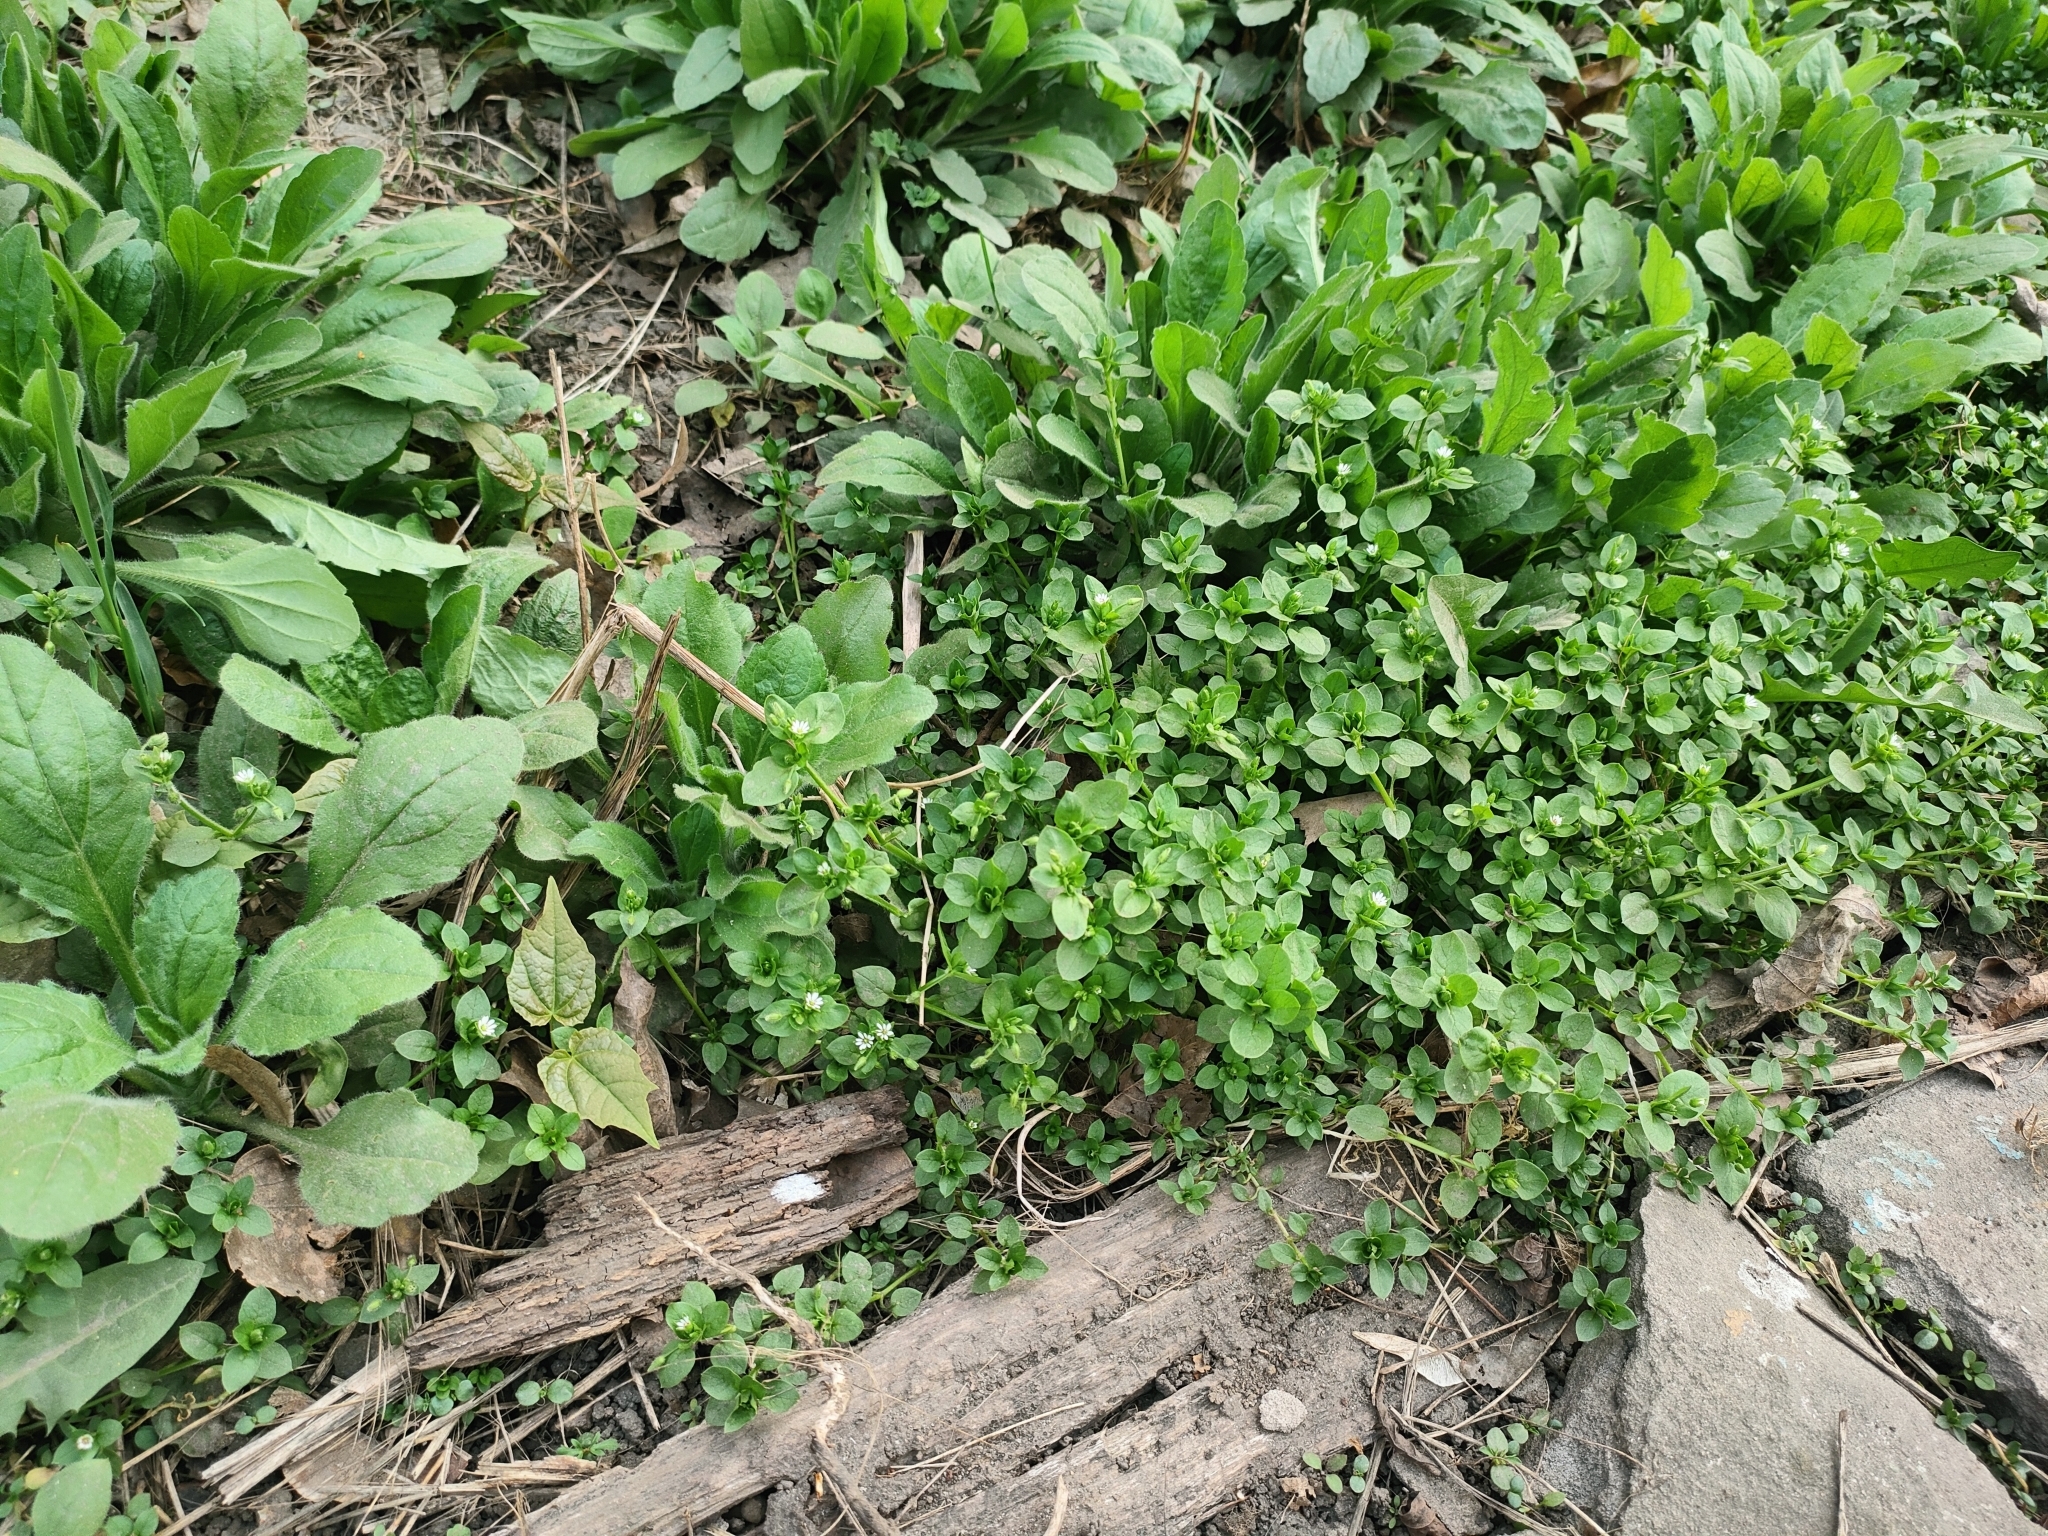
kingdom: Plantae
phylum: Tracheophyta
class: Magnoliopsida
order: Caryophyllales
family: Caryophyllaceae
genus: Stellaria
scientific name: Stellaria media
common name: Common chickweed
